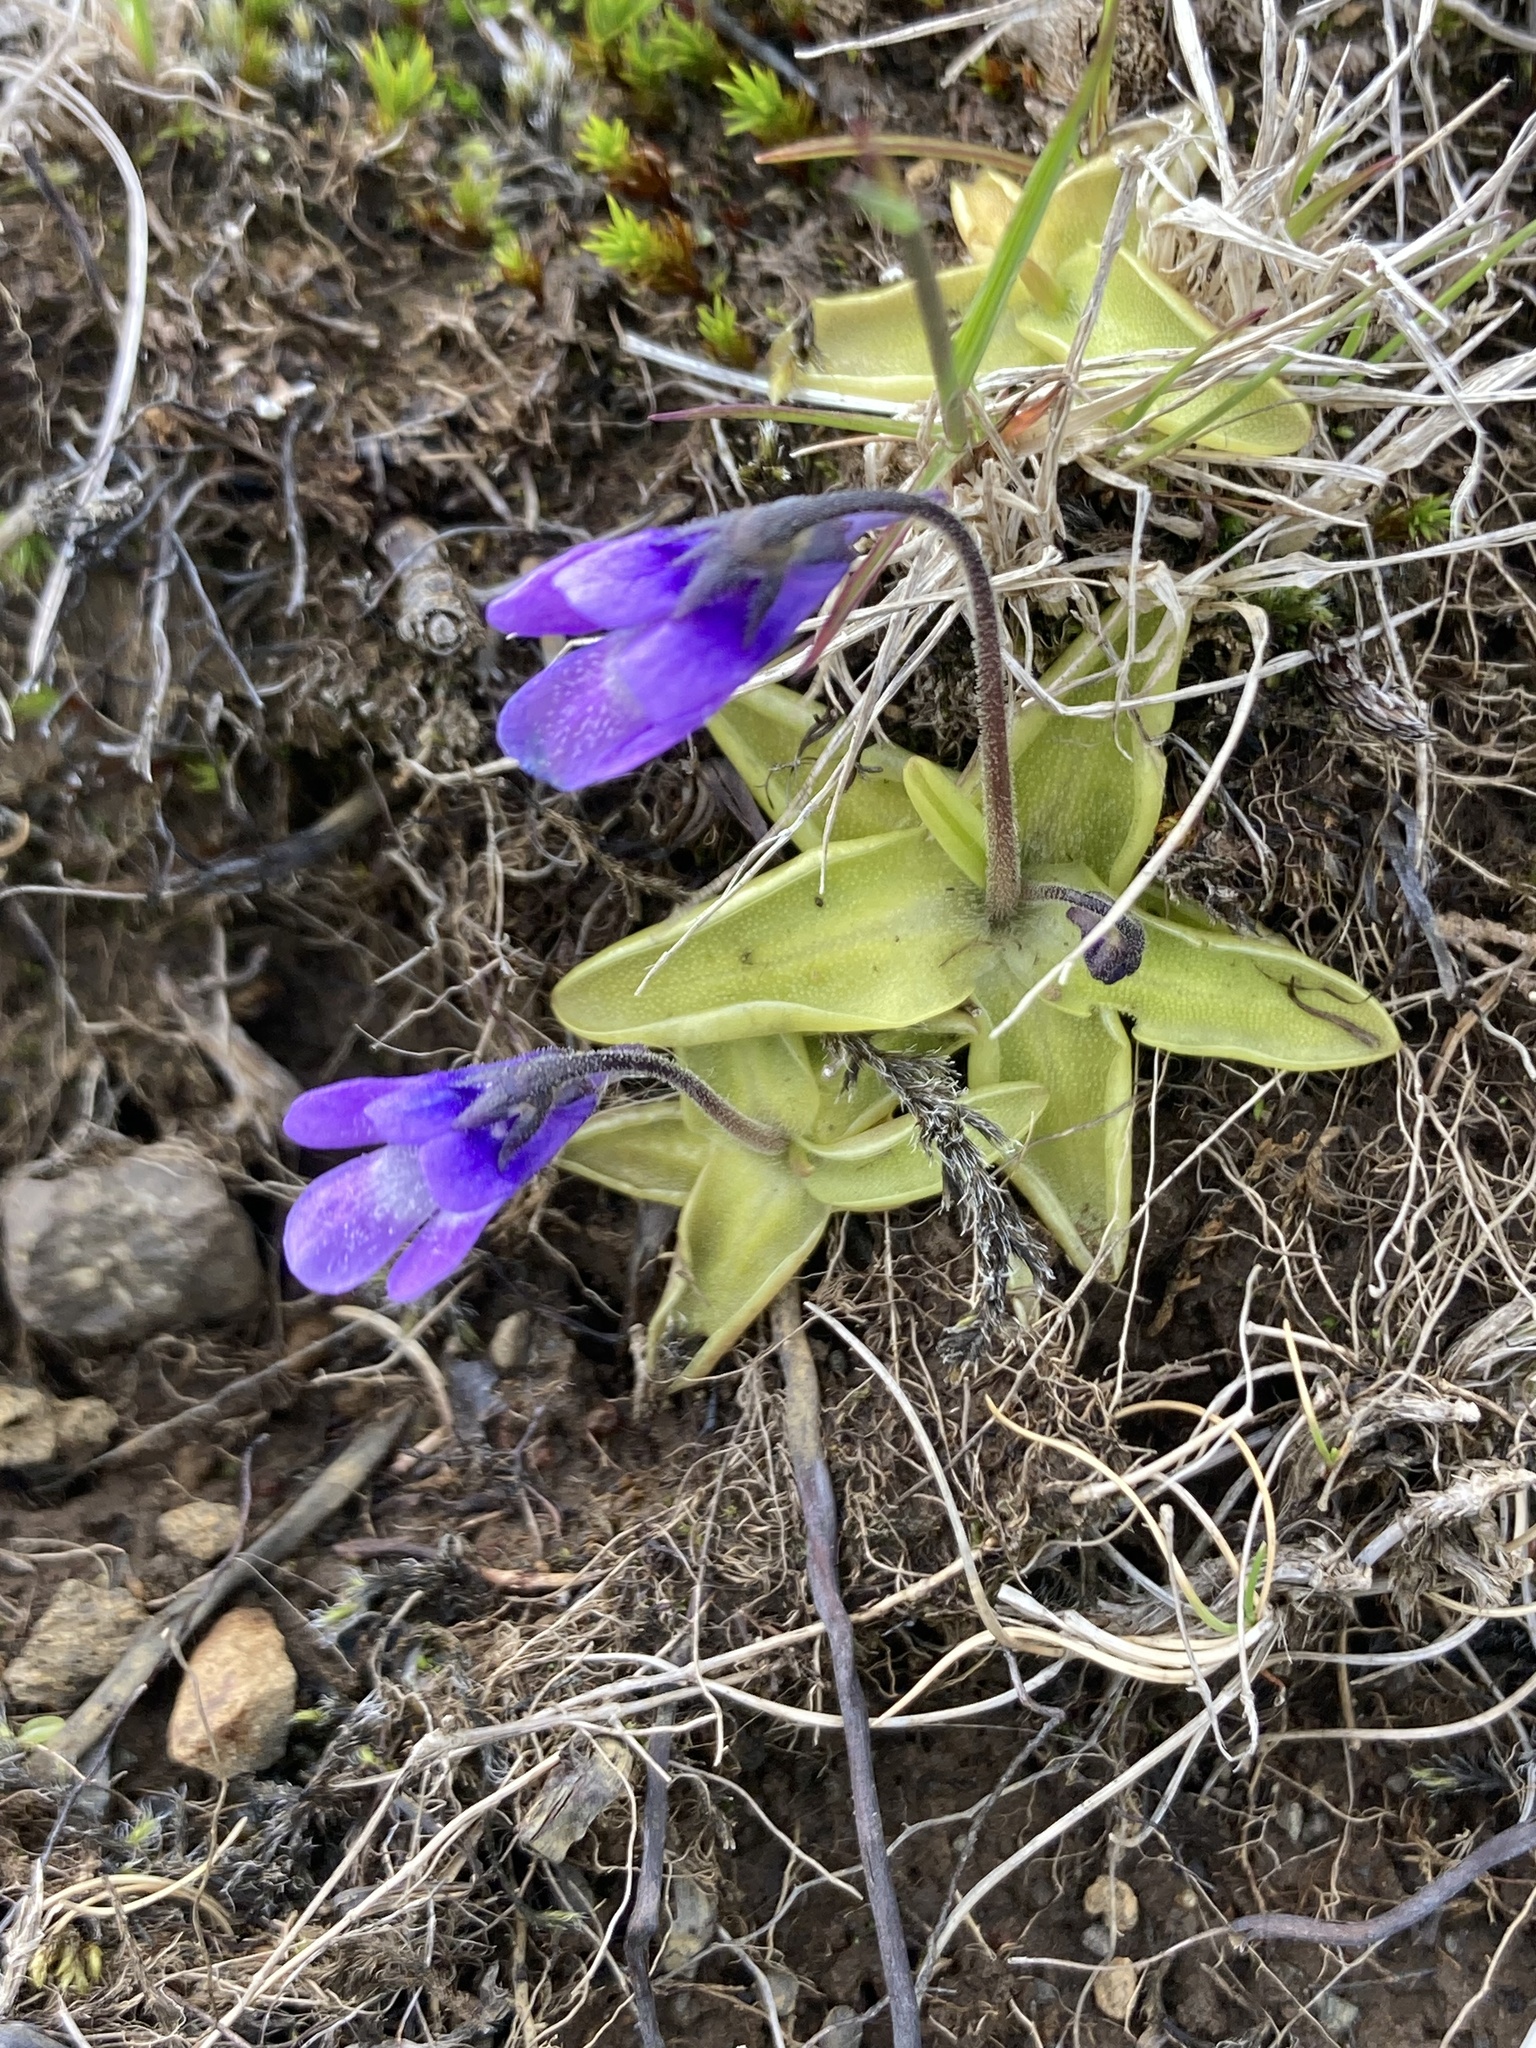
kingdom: Plantae
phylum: Tracheophyta
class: Magnoliopsida
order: Lamiales
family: Lentibulariaceae
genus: Pinguicula
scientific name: Pinguicula vulgaris
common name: Common butterwort
